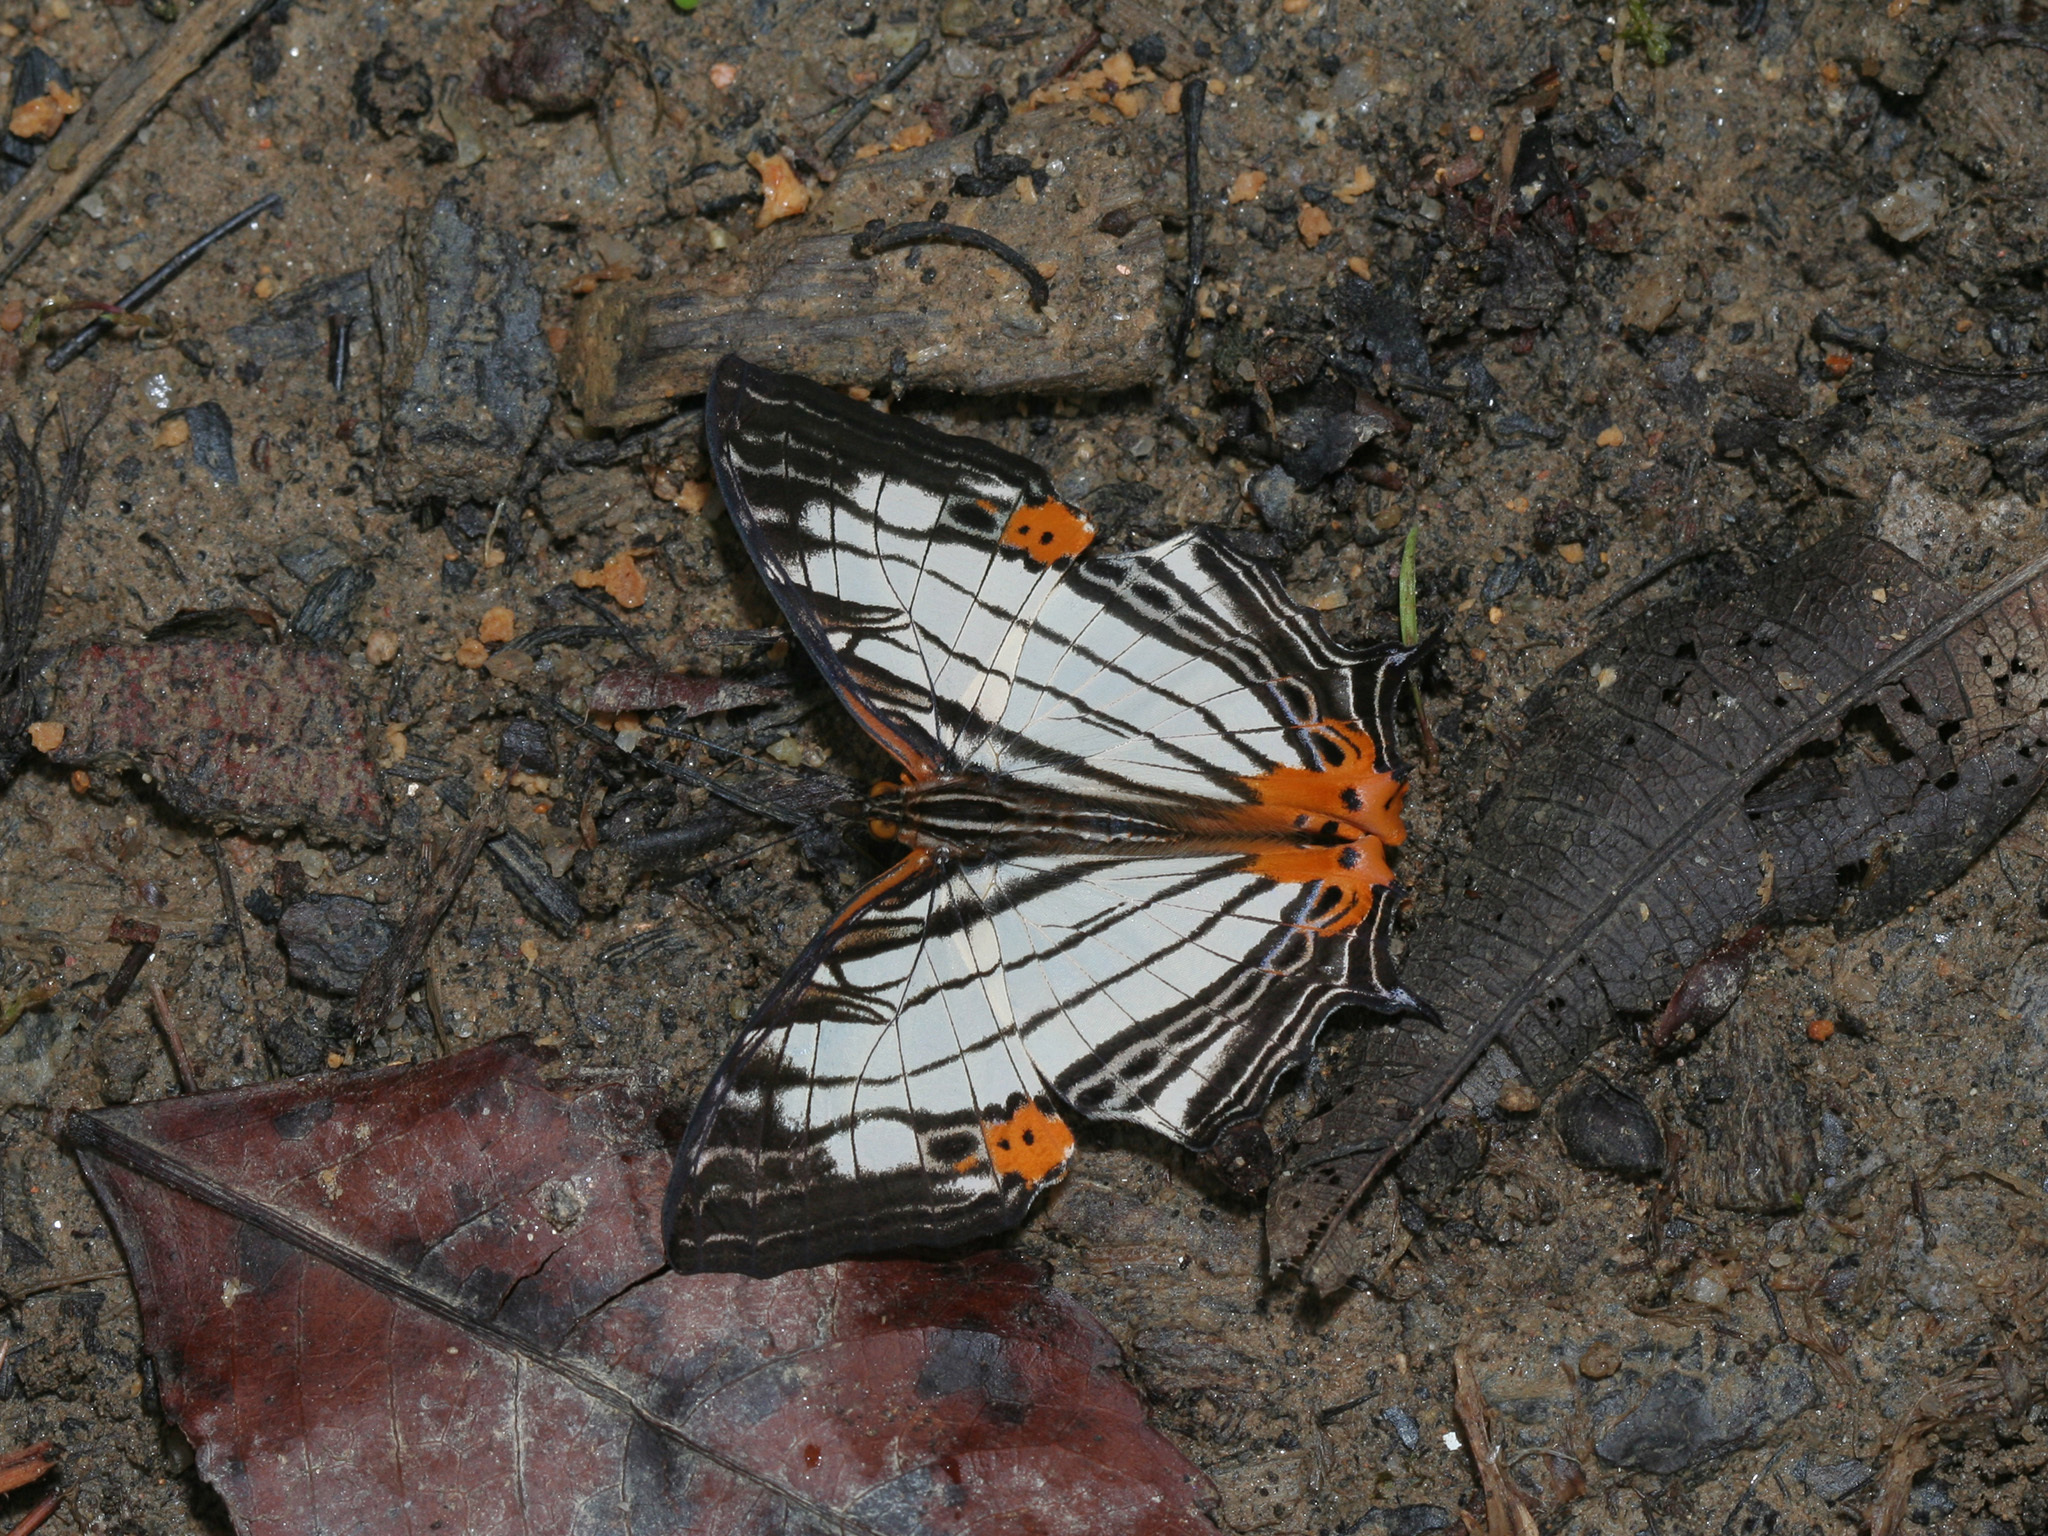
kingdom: Animalia
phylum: Arthropoda
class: Insecta
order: Lepidoptera
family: Nymphalidae
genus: Cyrestis
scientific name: Cyrestis maenalis
